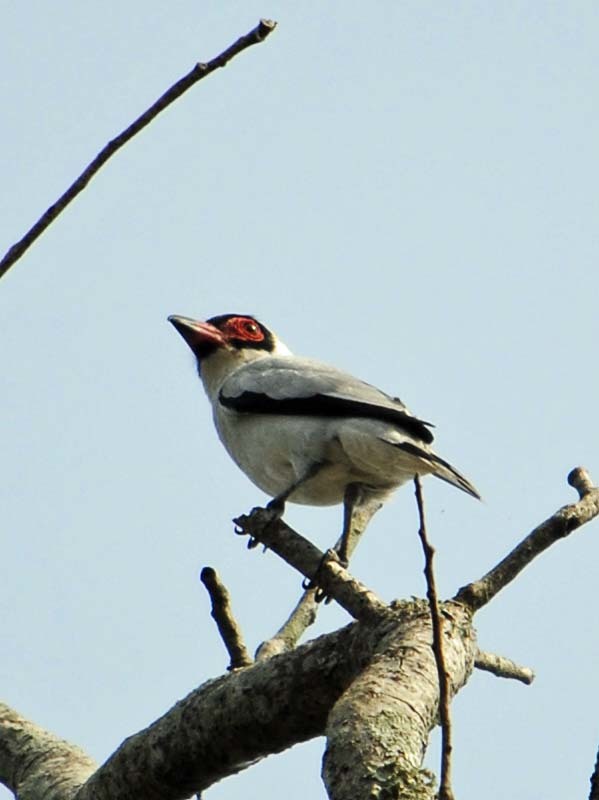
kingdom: Animalia
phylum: Chordata
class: Aves
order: Passeriformes
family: Cotingidae
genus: Tityra
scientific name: Tityra semifasciata
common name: Masked tityra
